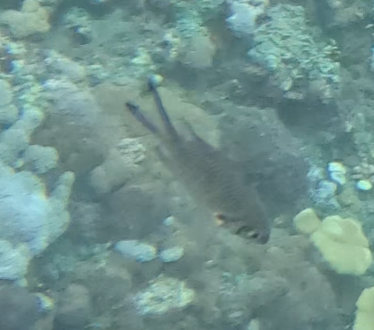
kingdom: Animalia
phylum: Chordata
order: Perciformes
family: Pomacentridae
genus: Chromis
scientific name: Chromis weberi
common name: Weber's chromis
